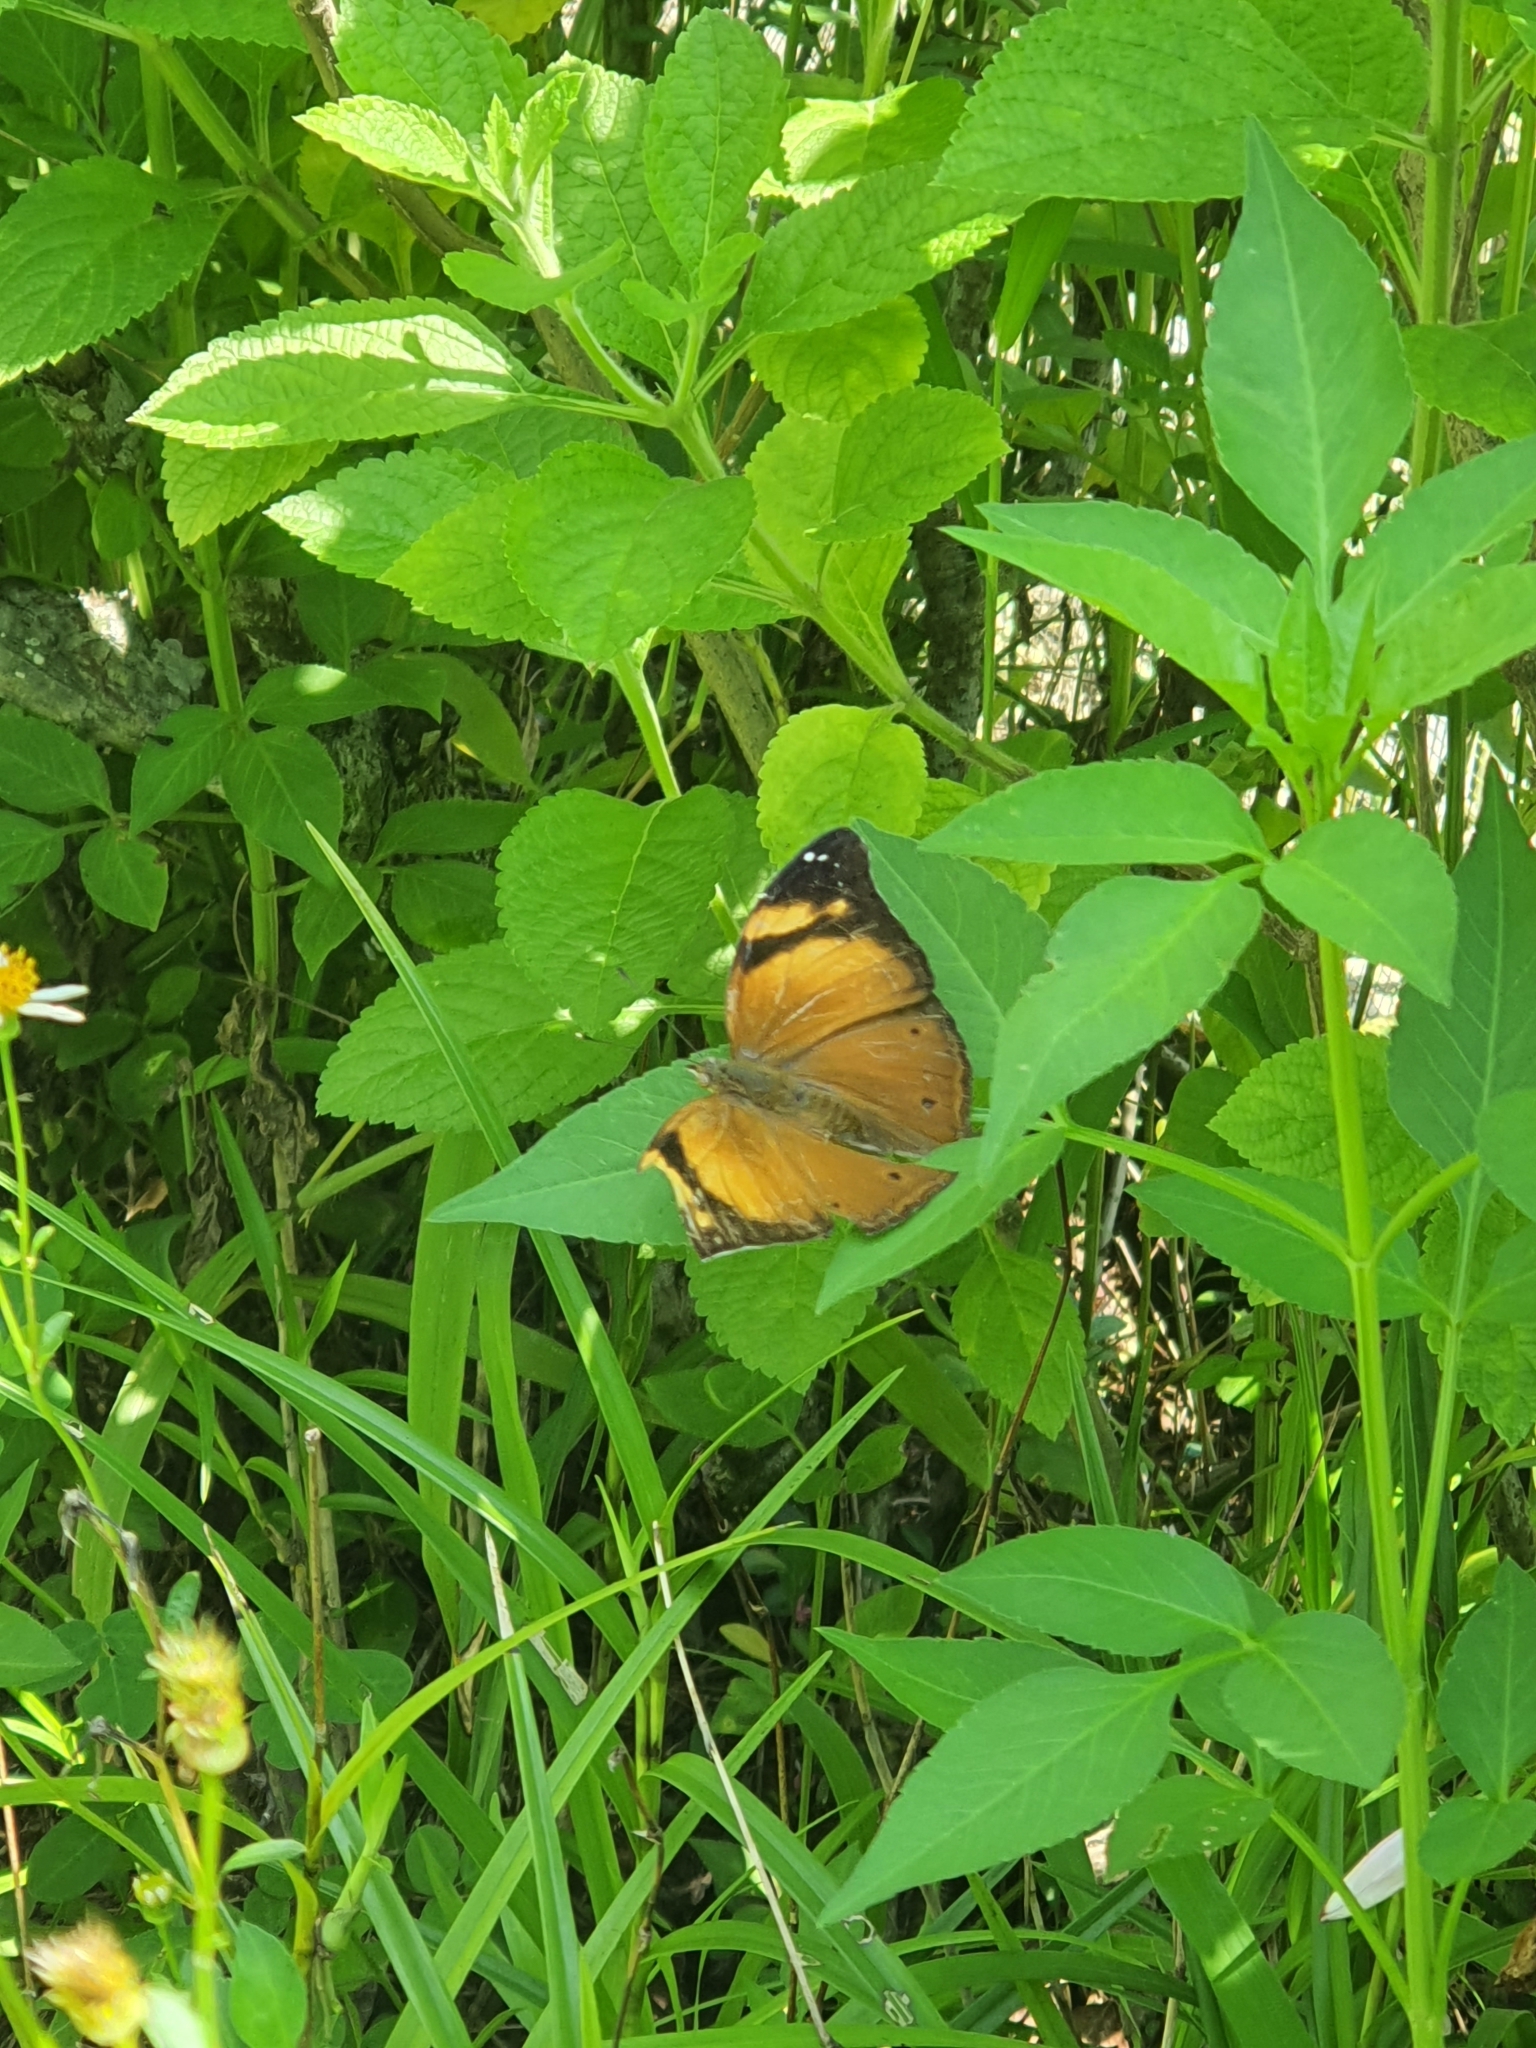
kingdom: Animalia
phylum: Arthropoda
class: Insecta
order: Lepidoptera
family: Nymphalidae
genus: Doleschallia
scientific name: Doleschallia bisaltide
